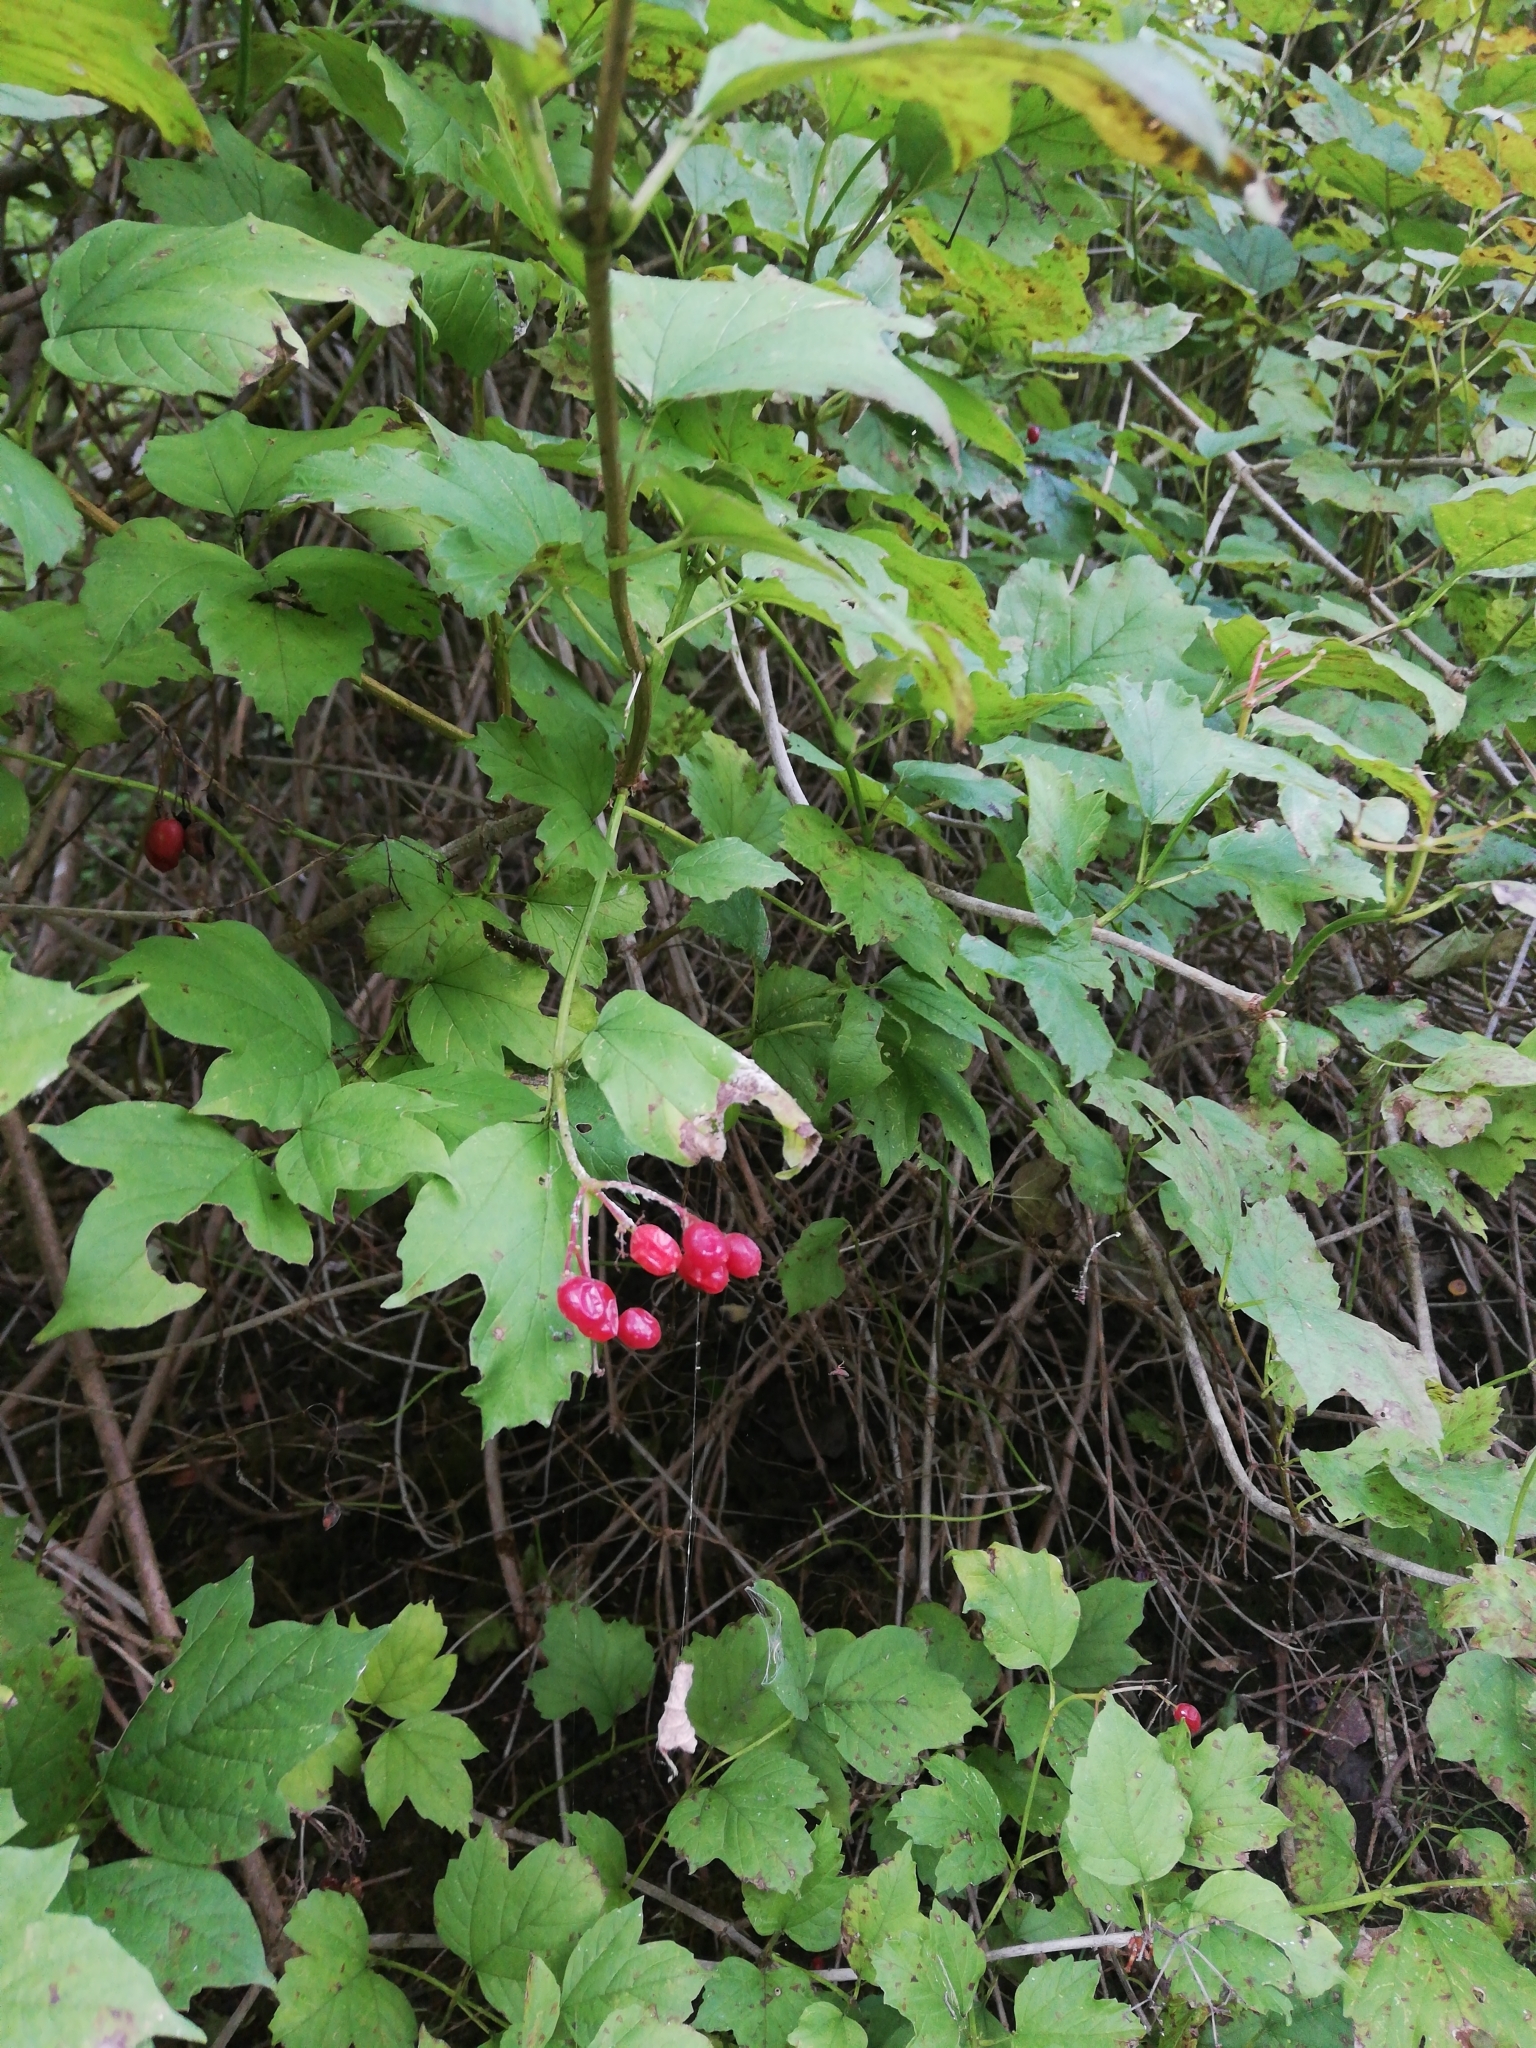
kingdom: Plantae
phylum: Tracheophyta
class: Magnoliopsida
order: Dipsacales
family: Viburnaceae
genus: Viburnum
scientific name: Viburnum opulus
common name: Guelder-rose
